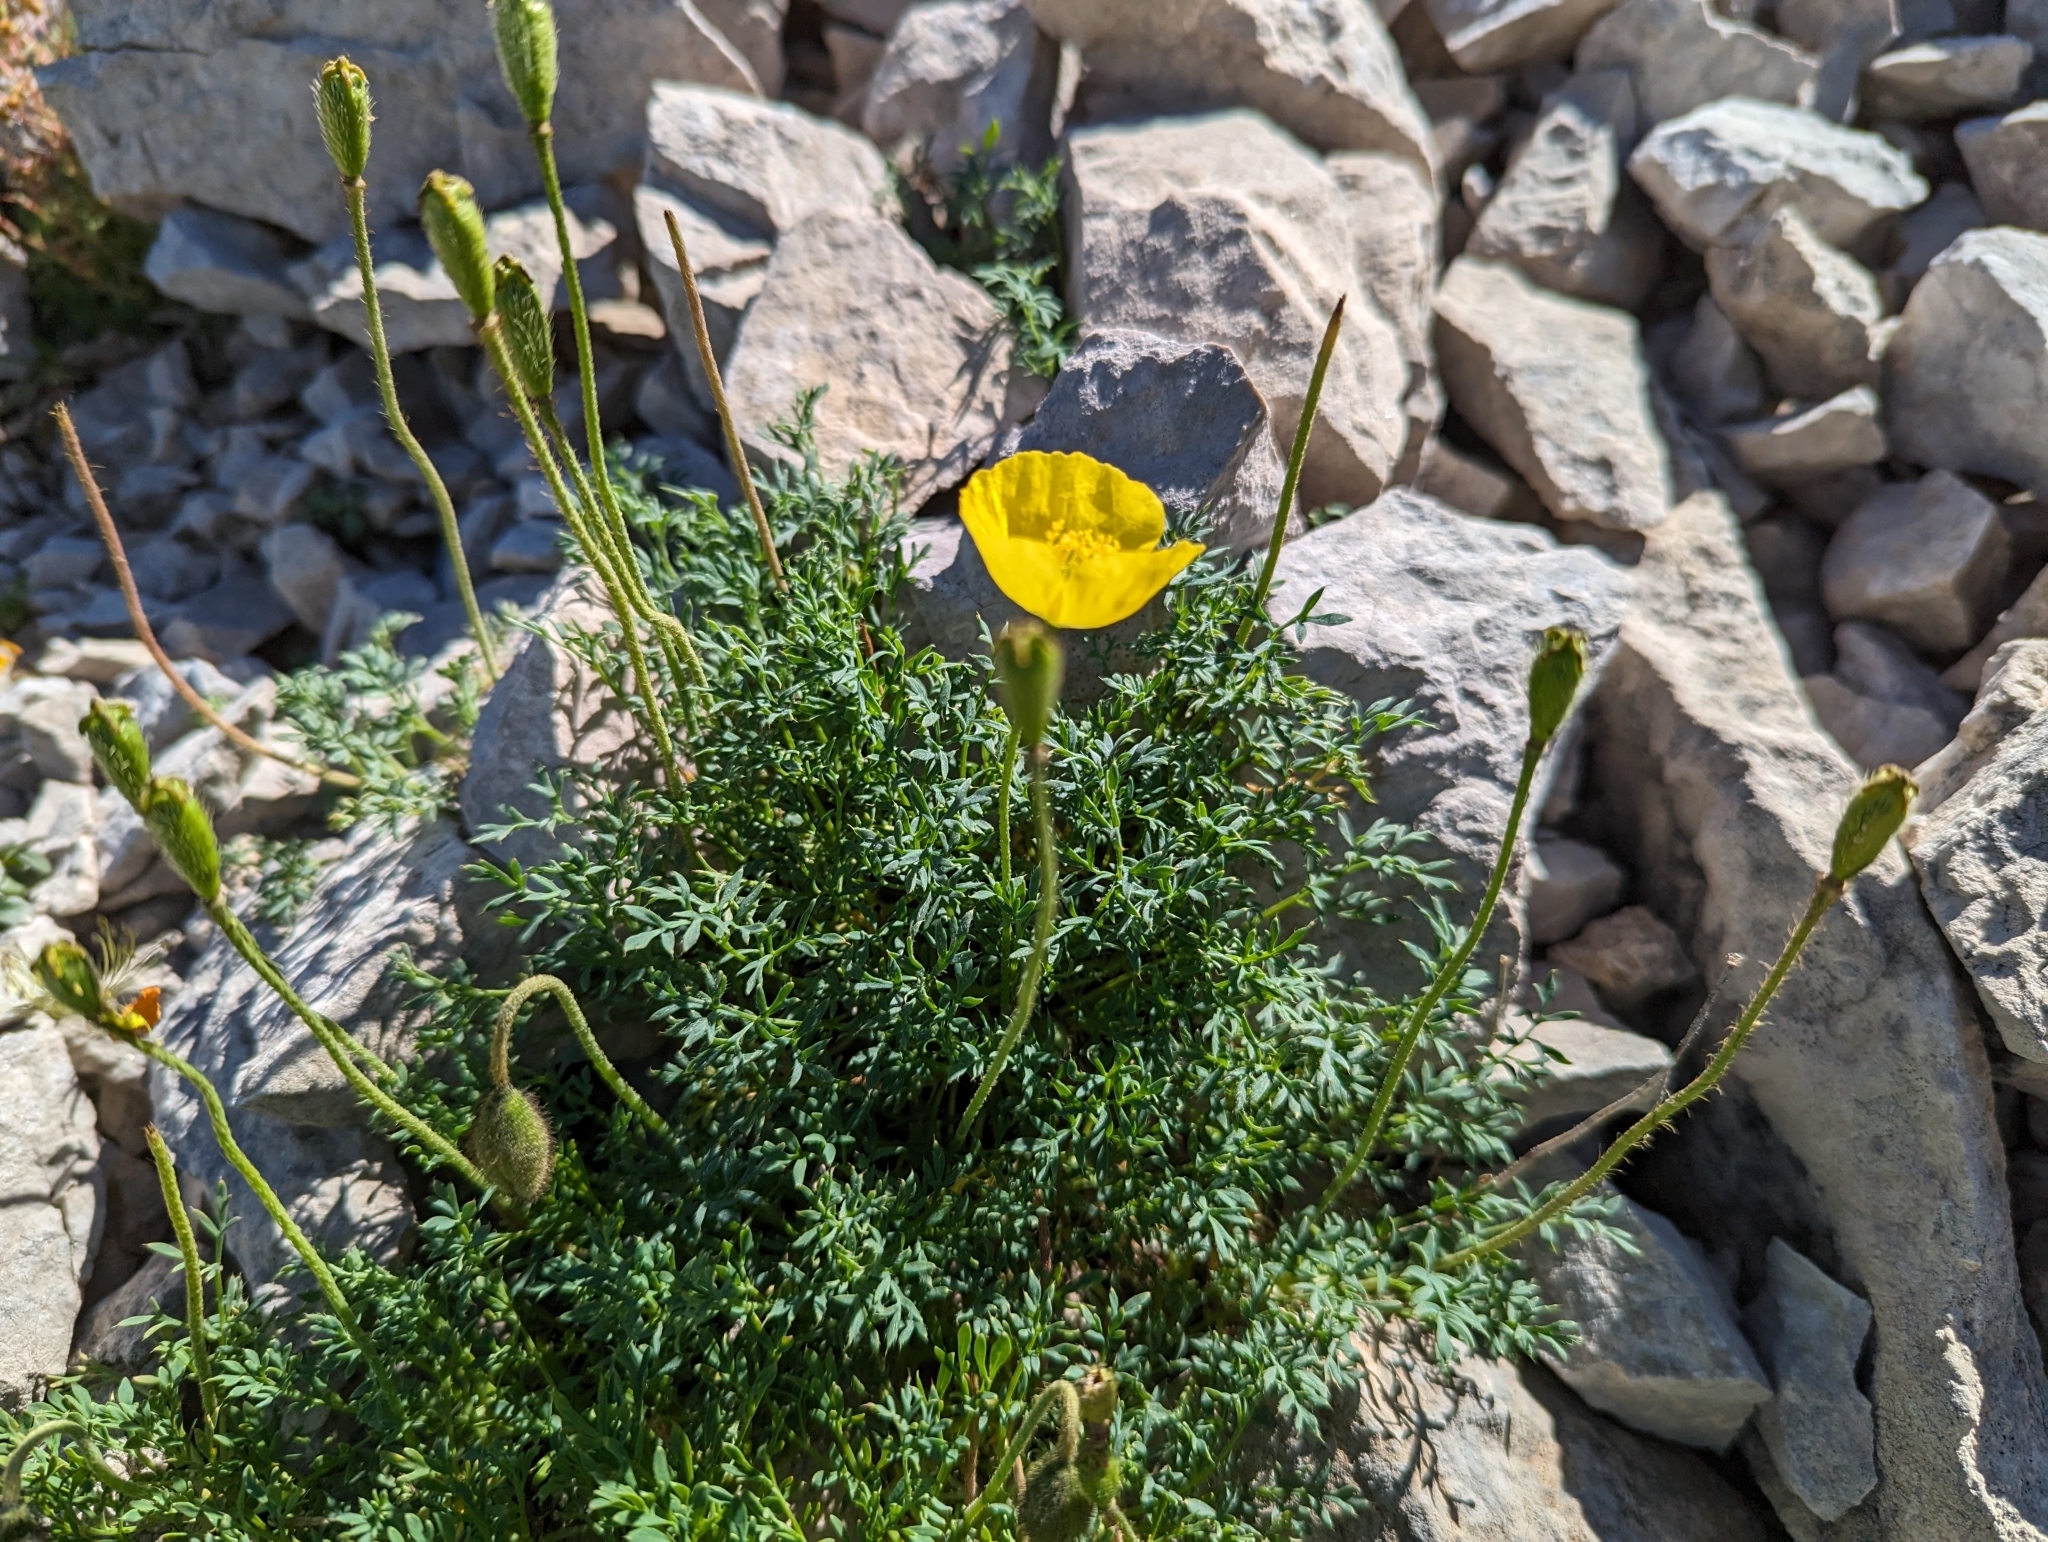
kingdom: Plantae
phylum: Tracheophyta
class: Magnoliopsida
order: Ranunculales
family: Papaveraceae
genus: Papaver
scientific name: Papaver alpinum
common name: Austrian poppy
